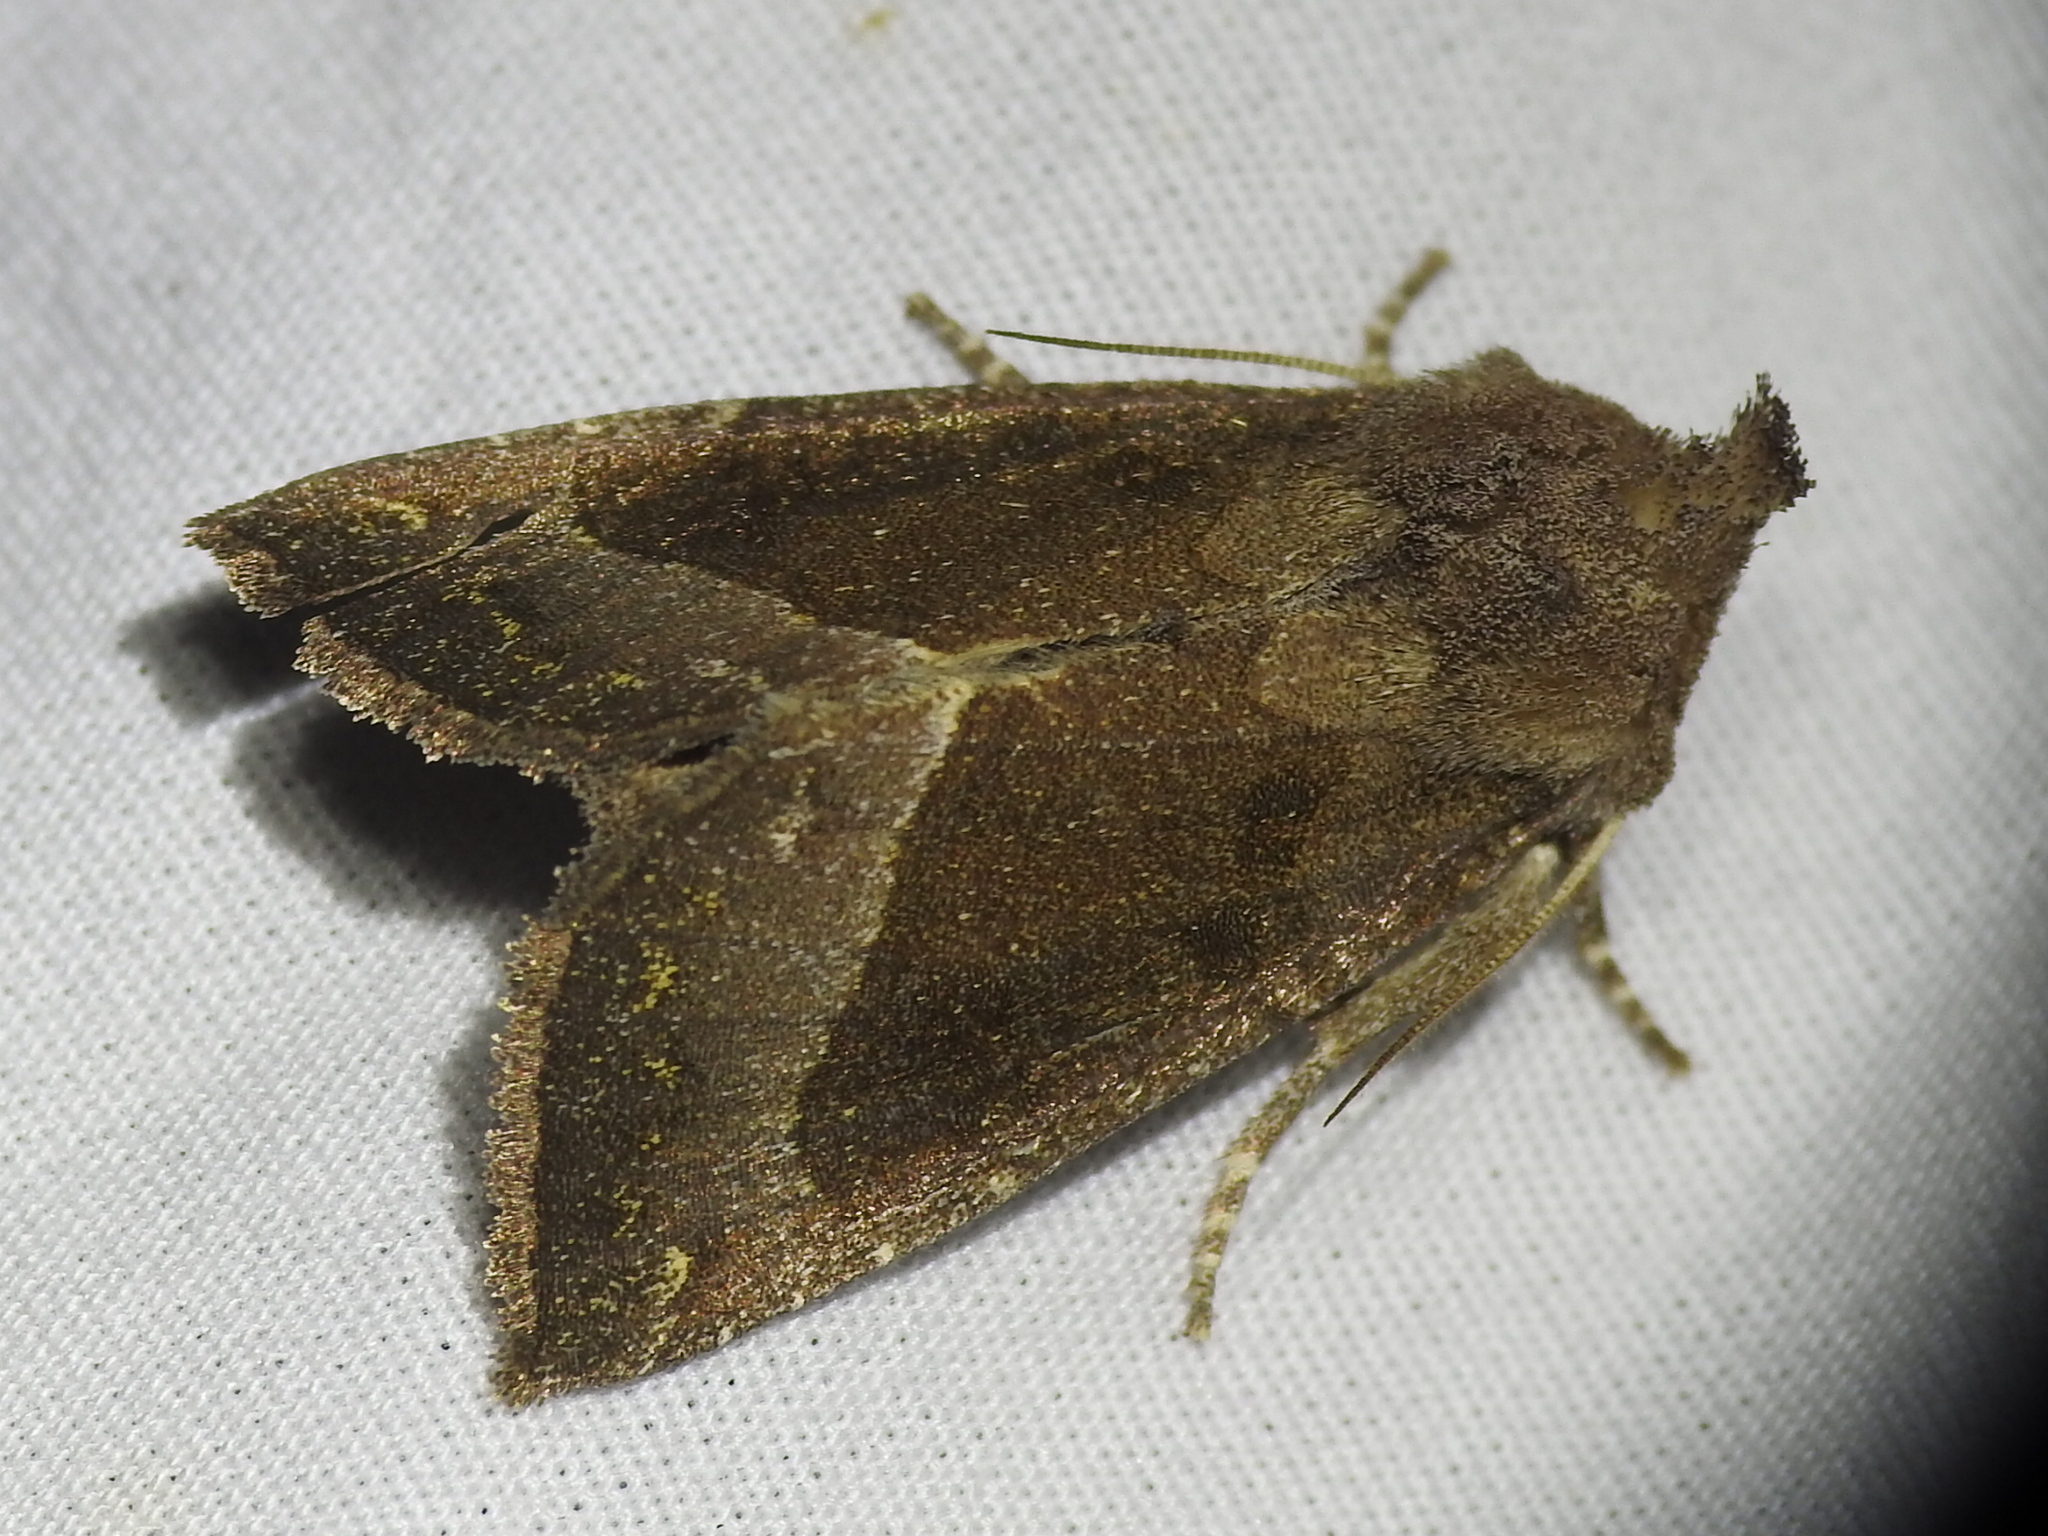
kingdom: Animalia
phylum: Arthropoda
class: Insecta
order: Lepidoptera
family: Noctuidae
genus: Papaipema
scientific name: Papaipema nebris
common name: Stalk borer
